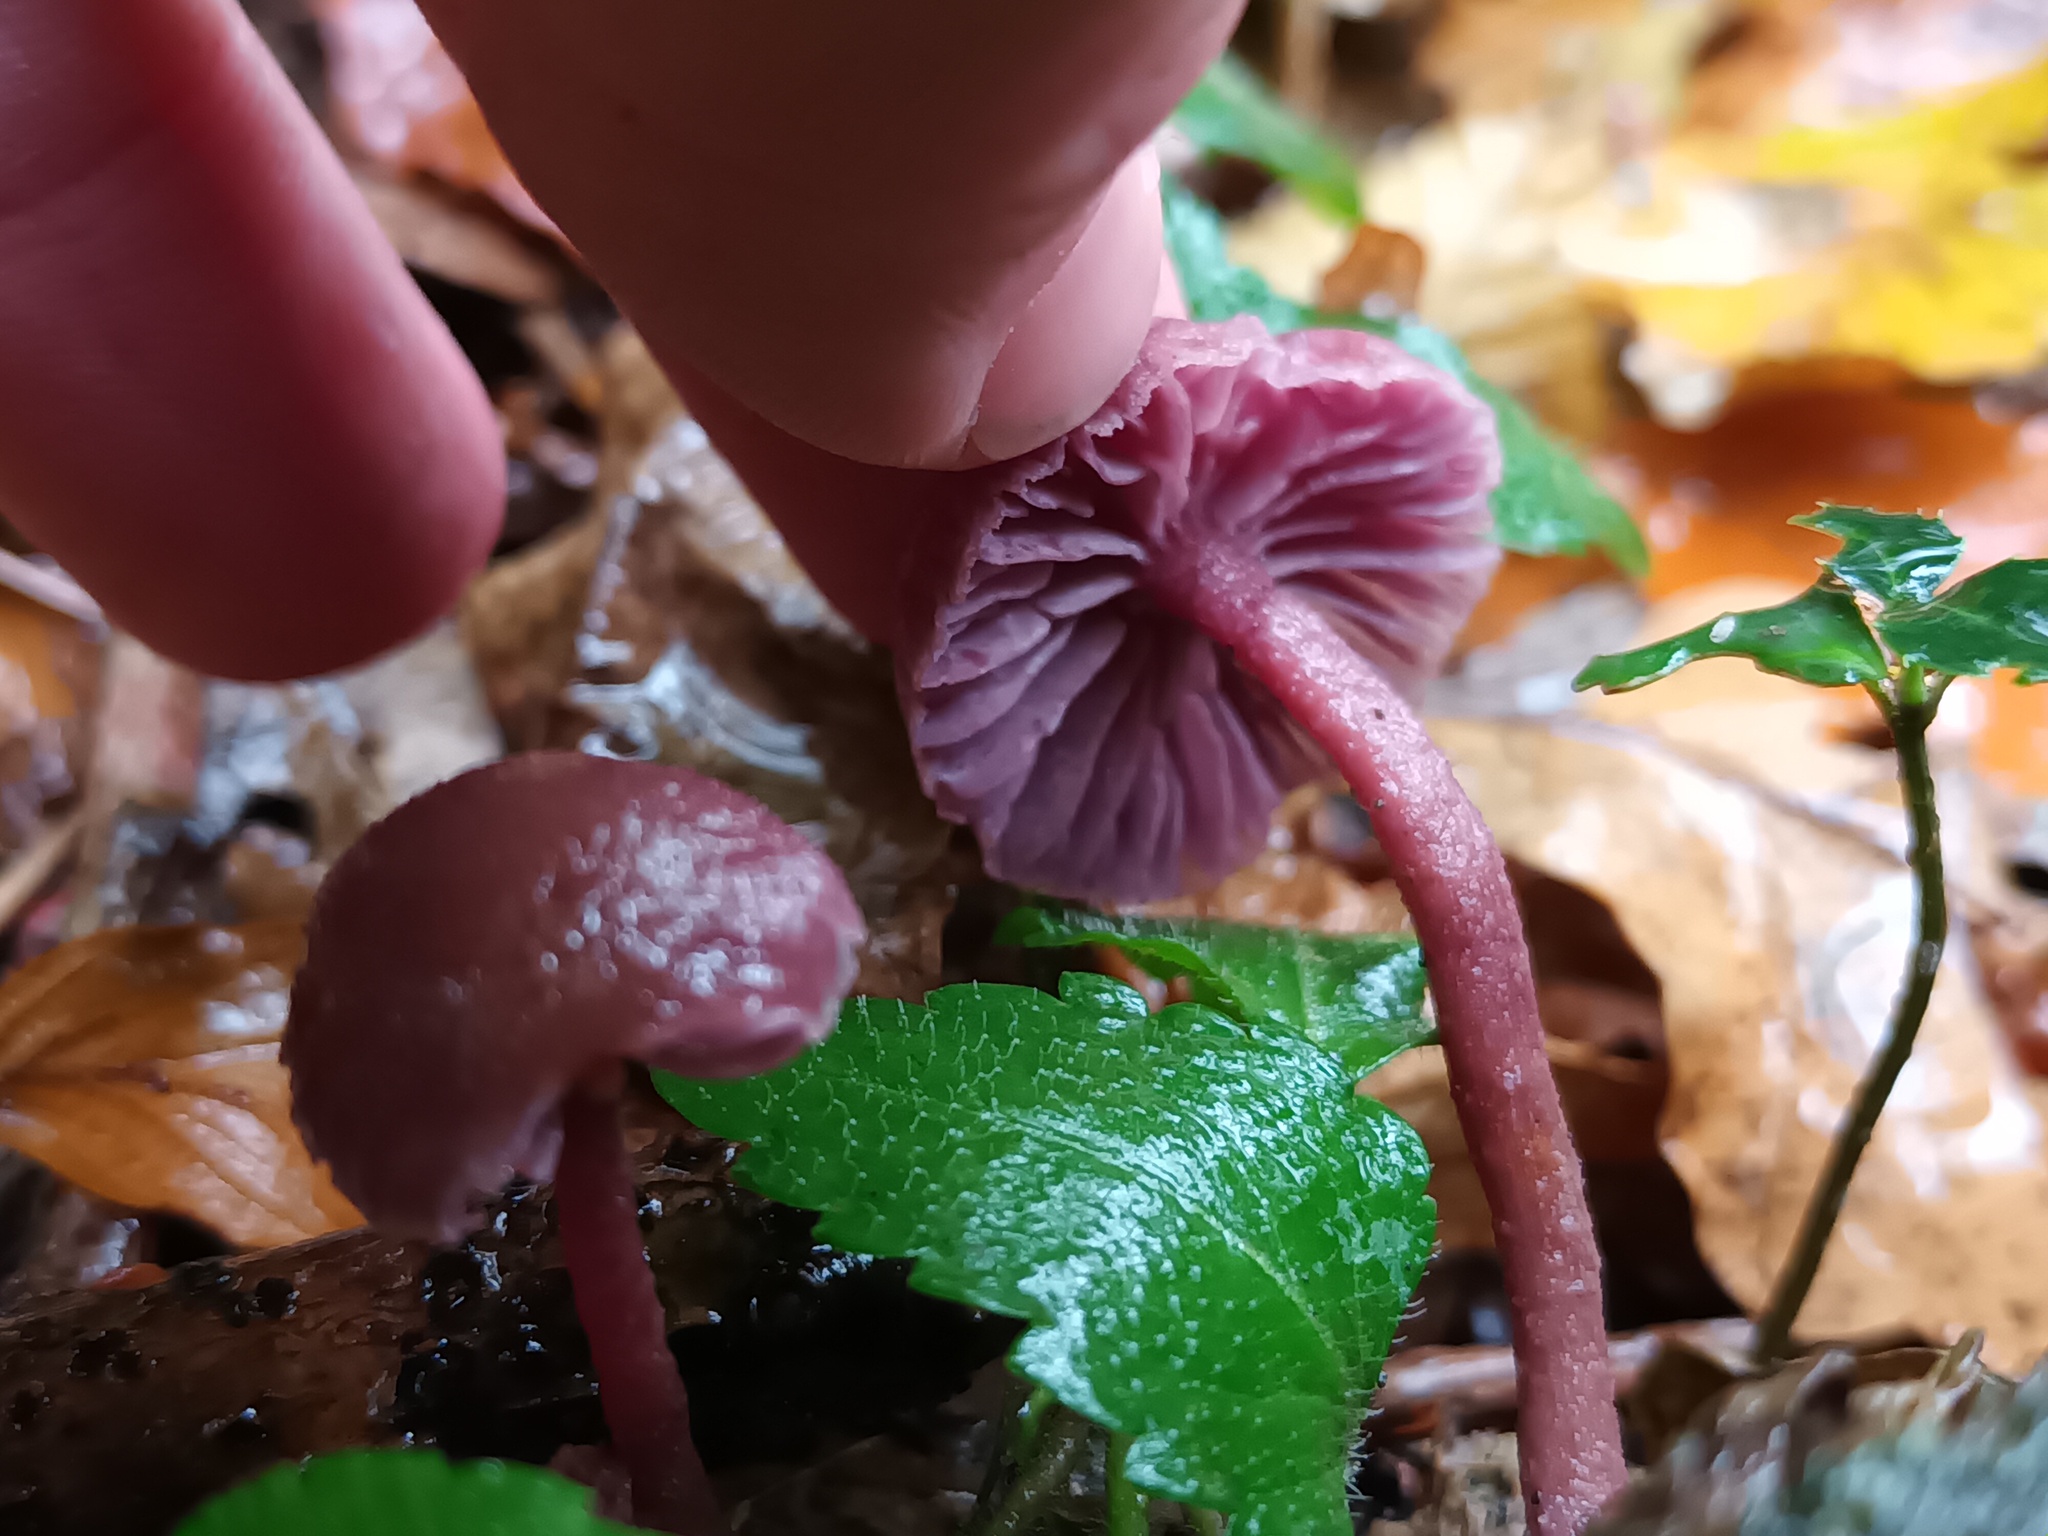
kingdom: Fungi
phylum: Basidiomycota
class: Agaricomycetes
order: Agaricales
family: Hydnangiaceae
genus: Laccaria
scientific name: Laccaria amethystina
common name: Amethyst deceiver
